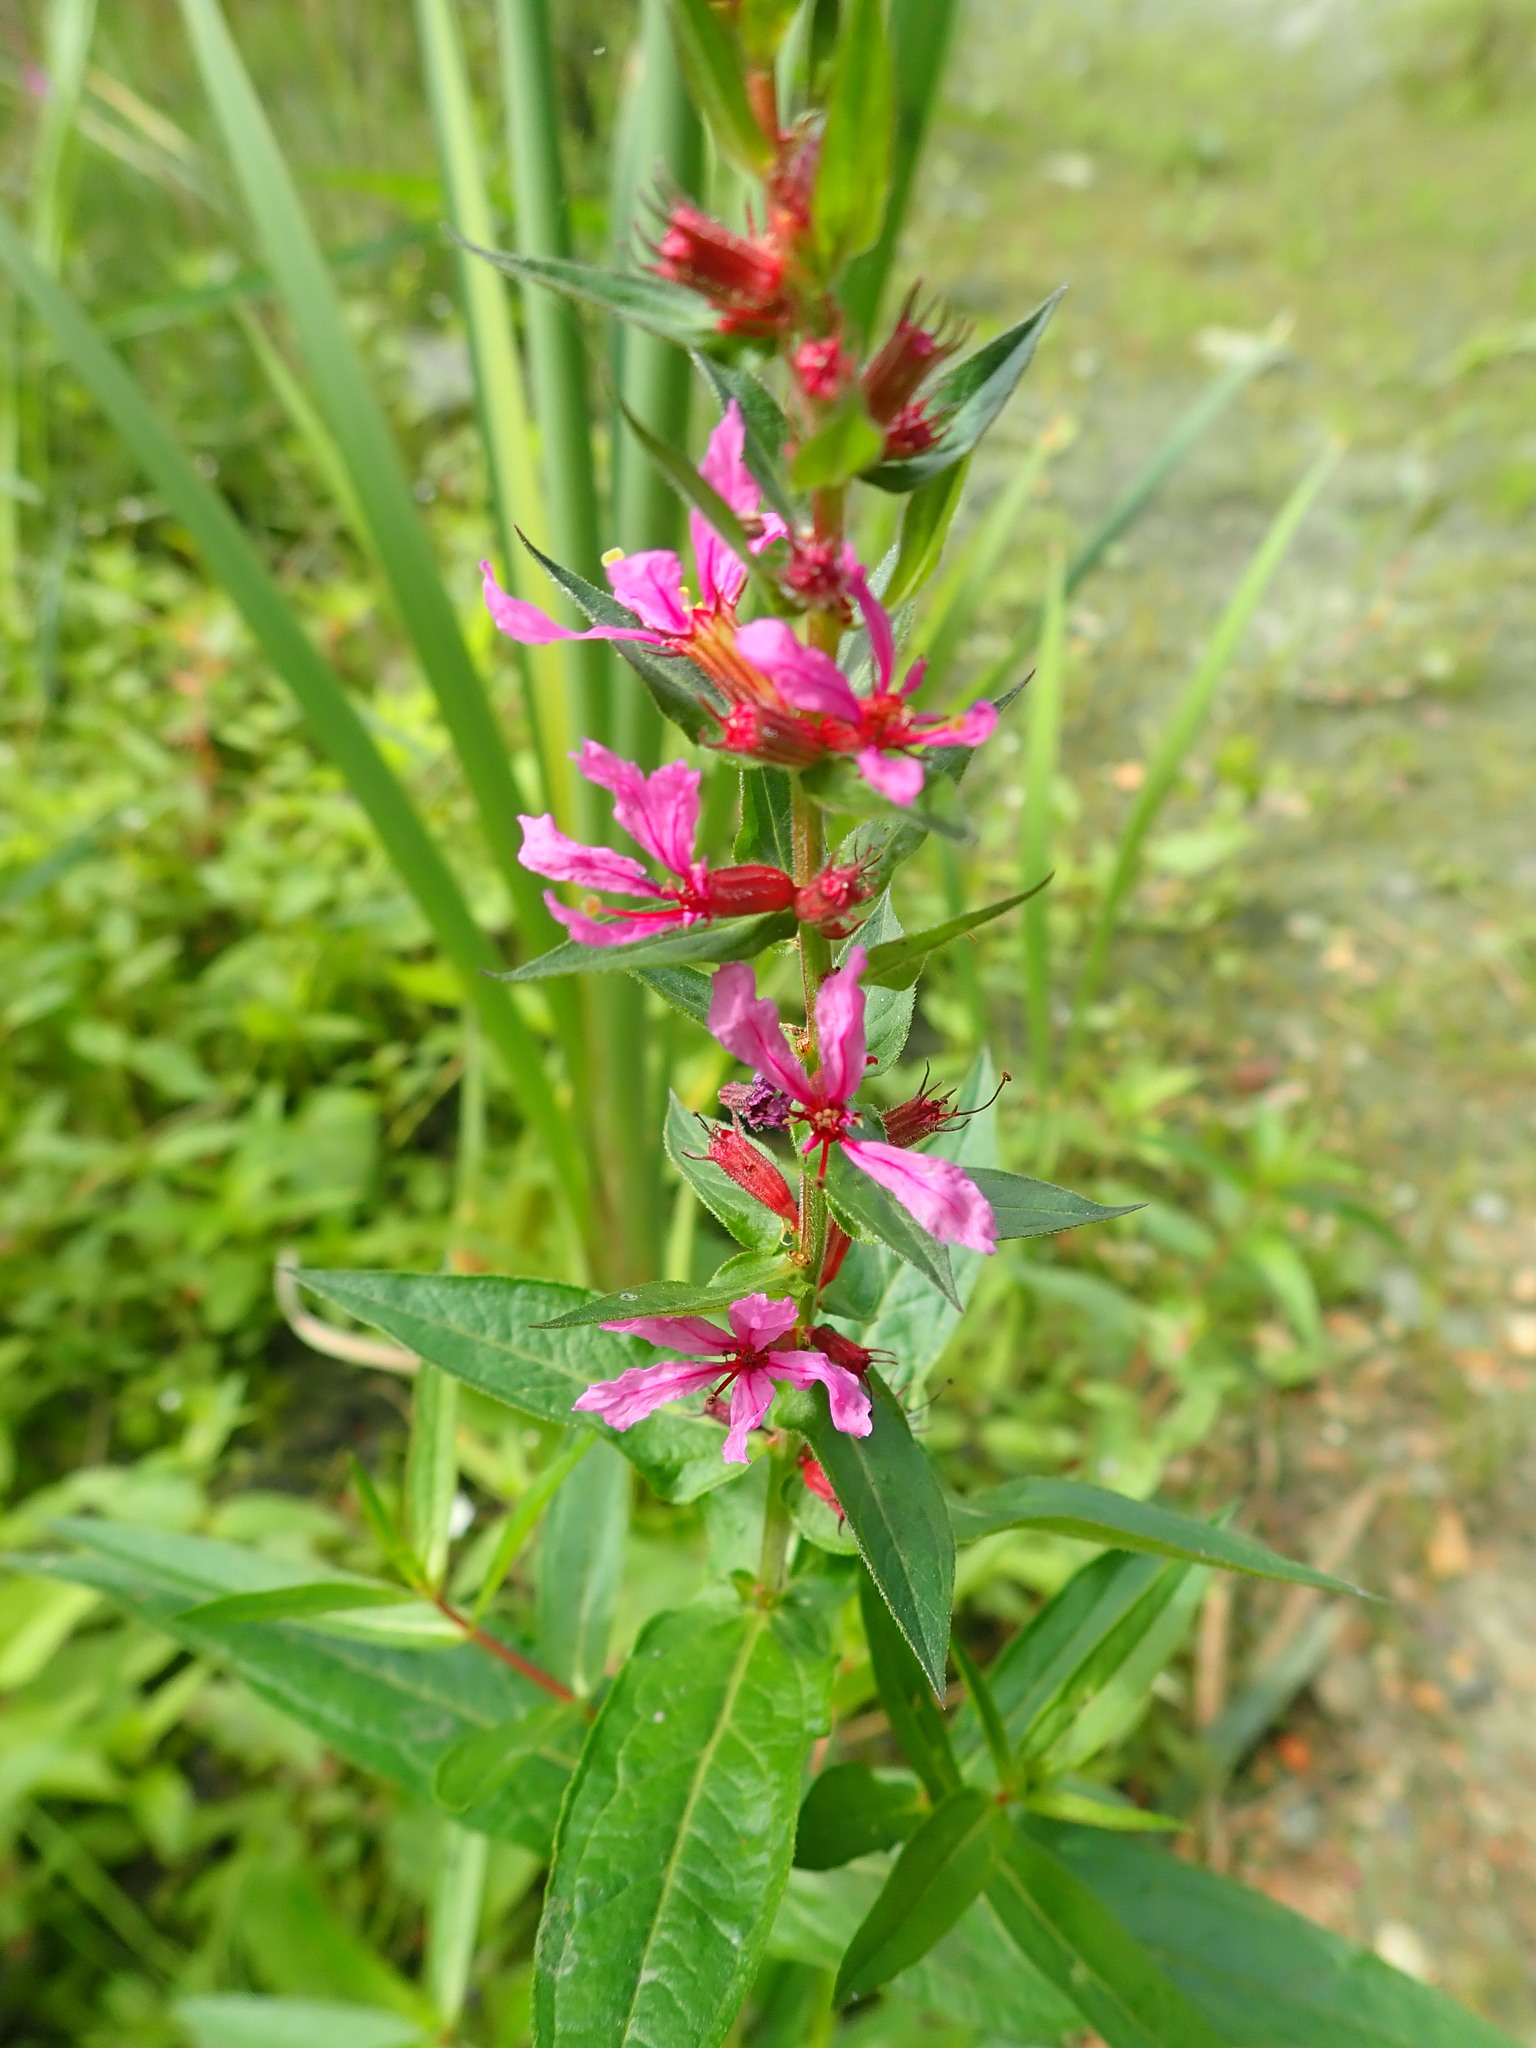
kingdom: Plantae
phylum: Tracheophyta
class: Magnoliopsida
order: Myrtales
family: Lythraceae
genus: Lythrum
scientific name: Lythrum salicaria
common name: Purple loosestrife
